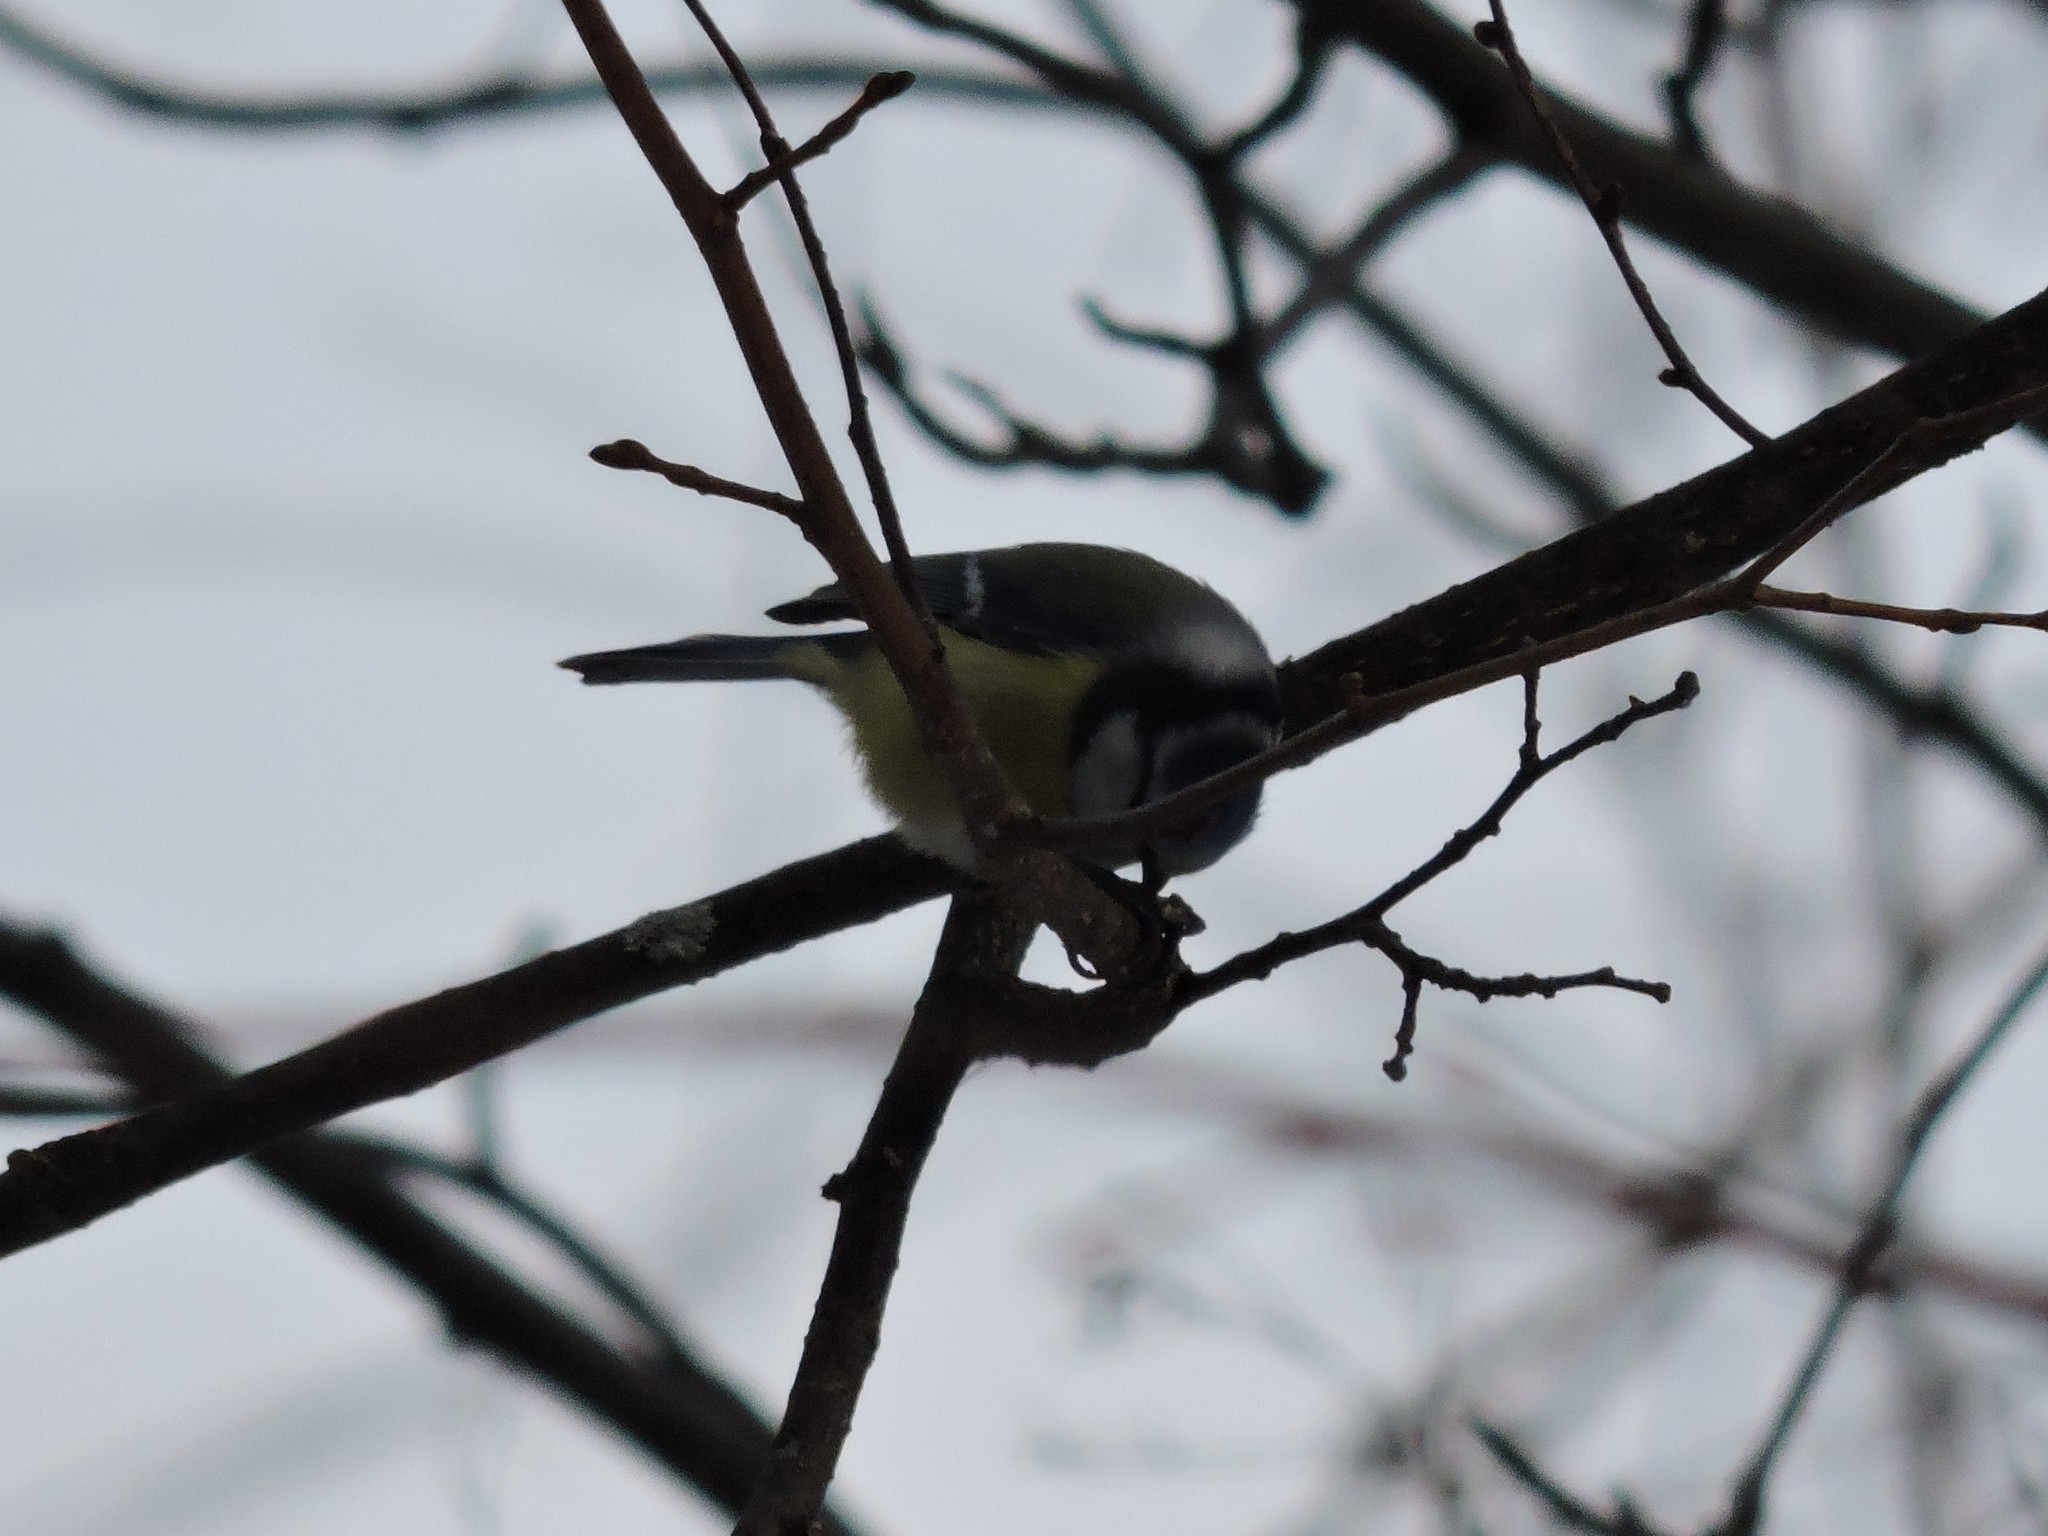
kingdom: Animalia
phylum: Chordata
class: Aves
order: Passeriformes
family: Paridae
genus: Cyanistes
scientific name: Cyanistes caeruleus
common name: Eurasian blue tit
